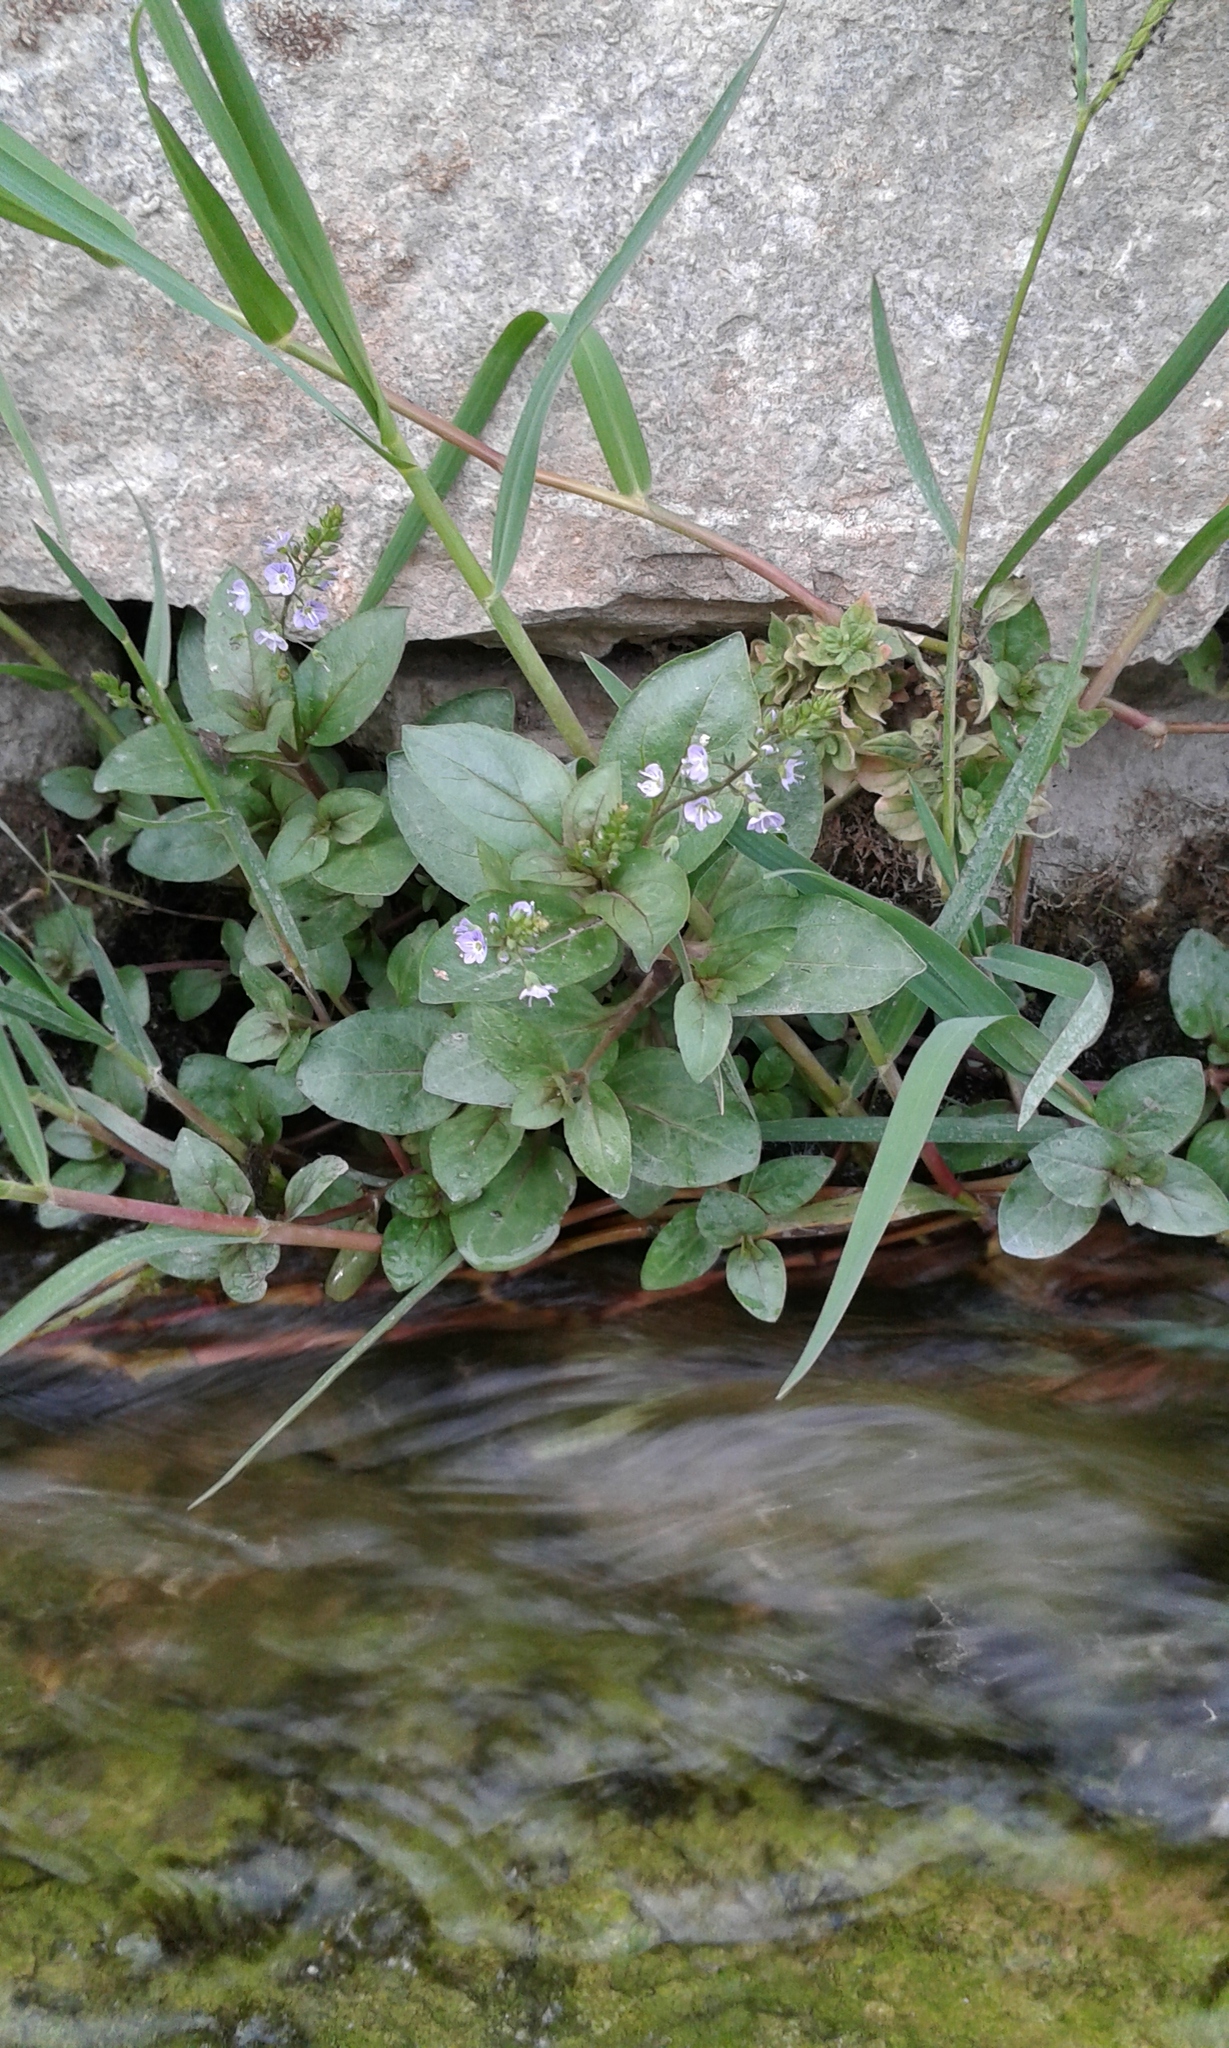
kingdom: Plantae
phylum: Tracheophyta
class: Magnoliopsida
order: Lamiales
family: Plantaginaceae
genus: Veronica
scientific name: Veronica anagallis-aquatica
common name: Water speedwell
